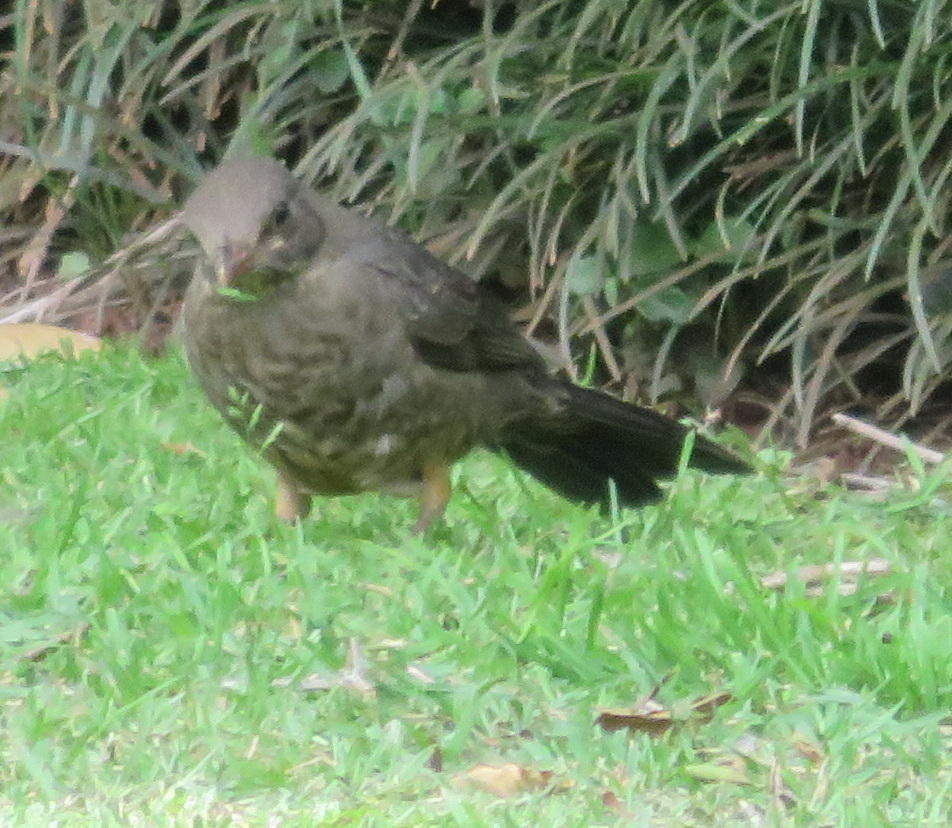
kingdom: Animalia
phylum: Chordata
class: Aves
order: Passeriformes
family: Turdidae
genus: Turdus
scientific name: Turdus smithi
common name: Karoo thrush
